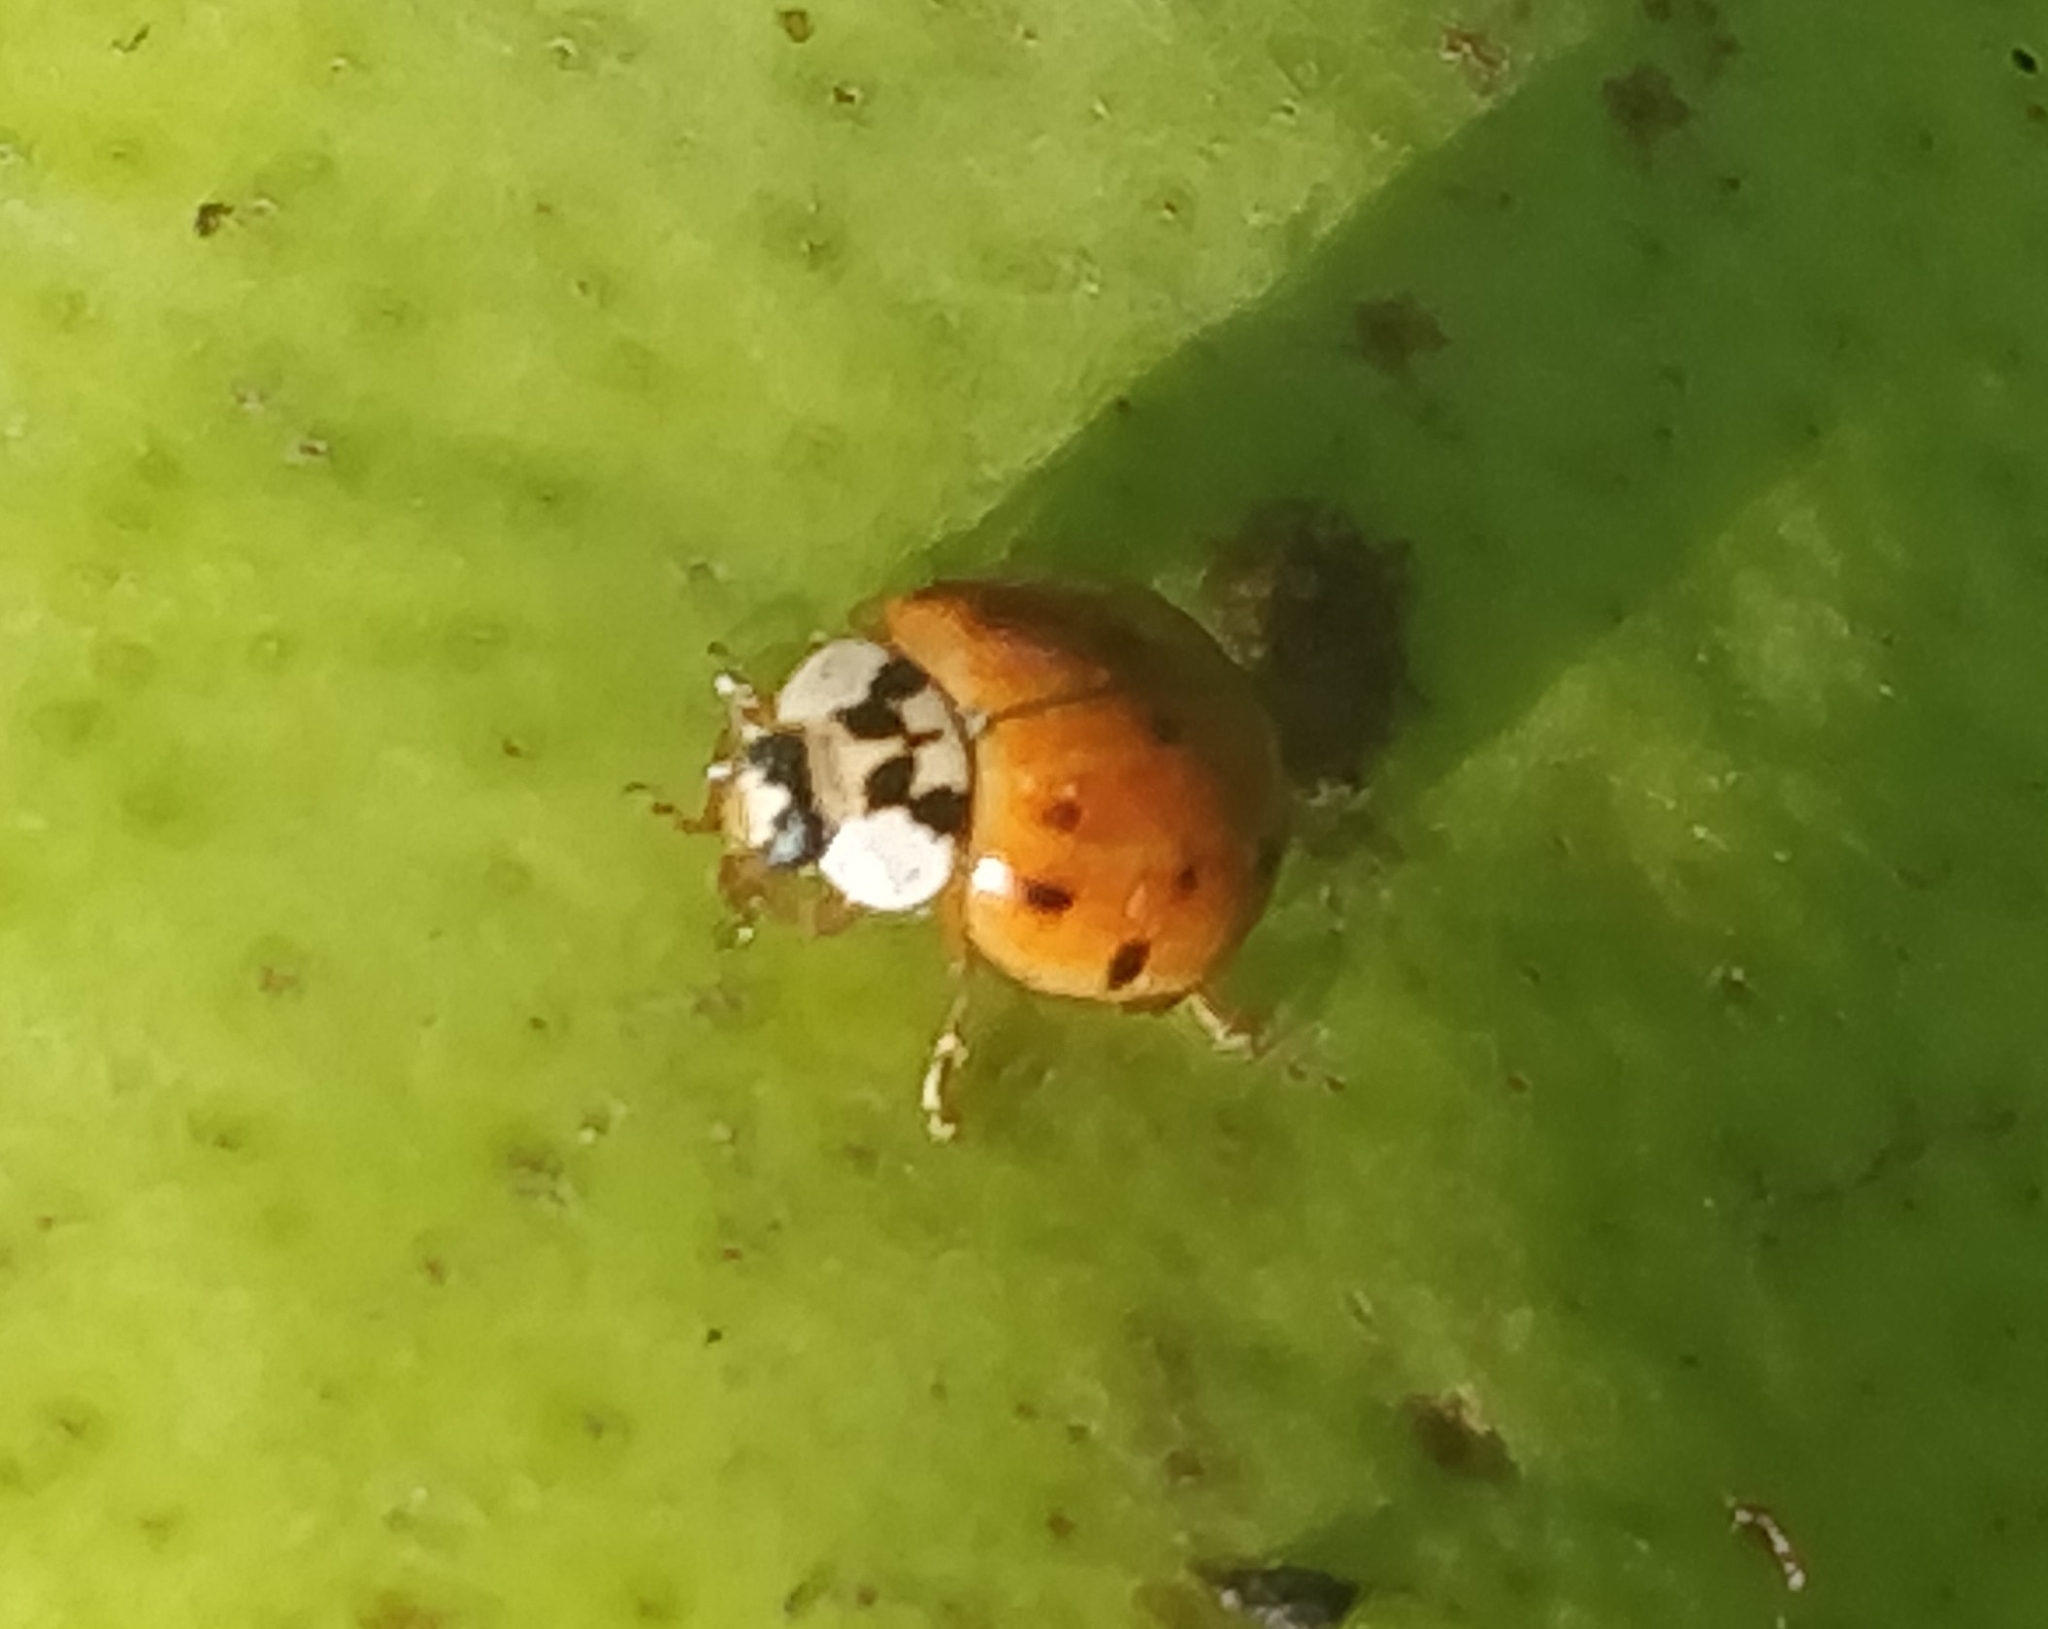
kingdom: Animalia
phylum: Arthropoda
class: Insecta
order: Coleoptera
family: Coccinellidae
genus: Harmonia
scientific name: Harmonia axyridis
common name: Harlequin ladybird
